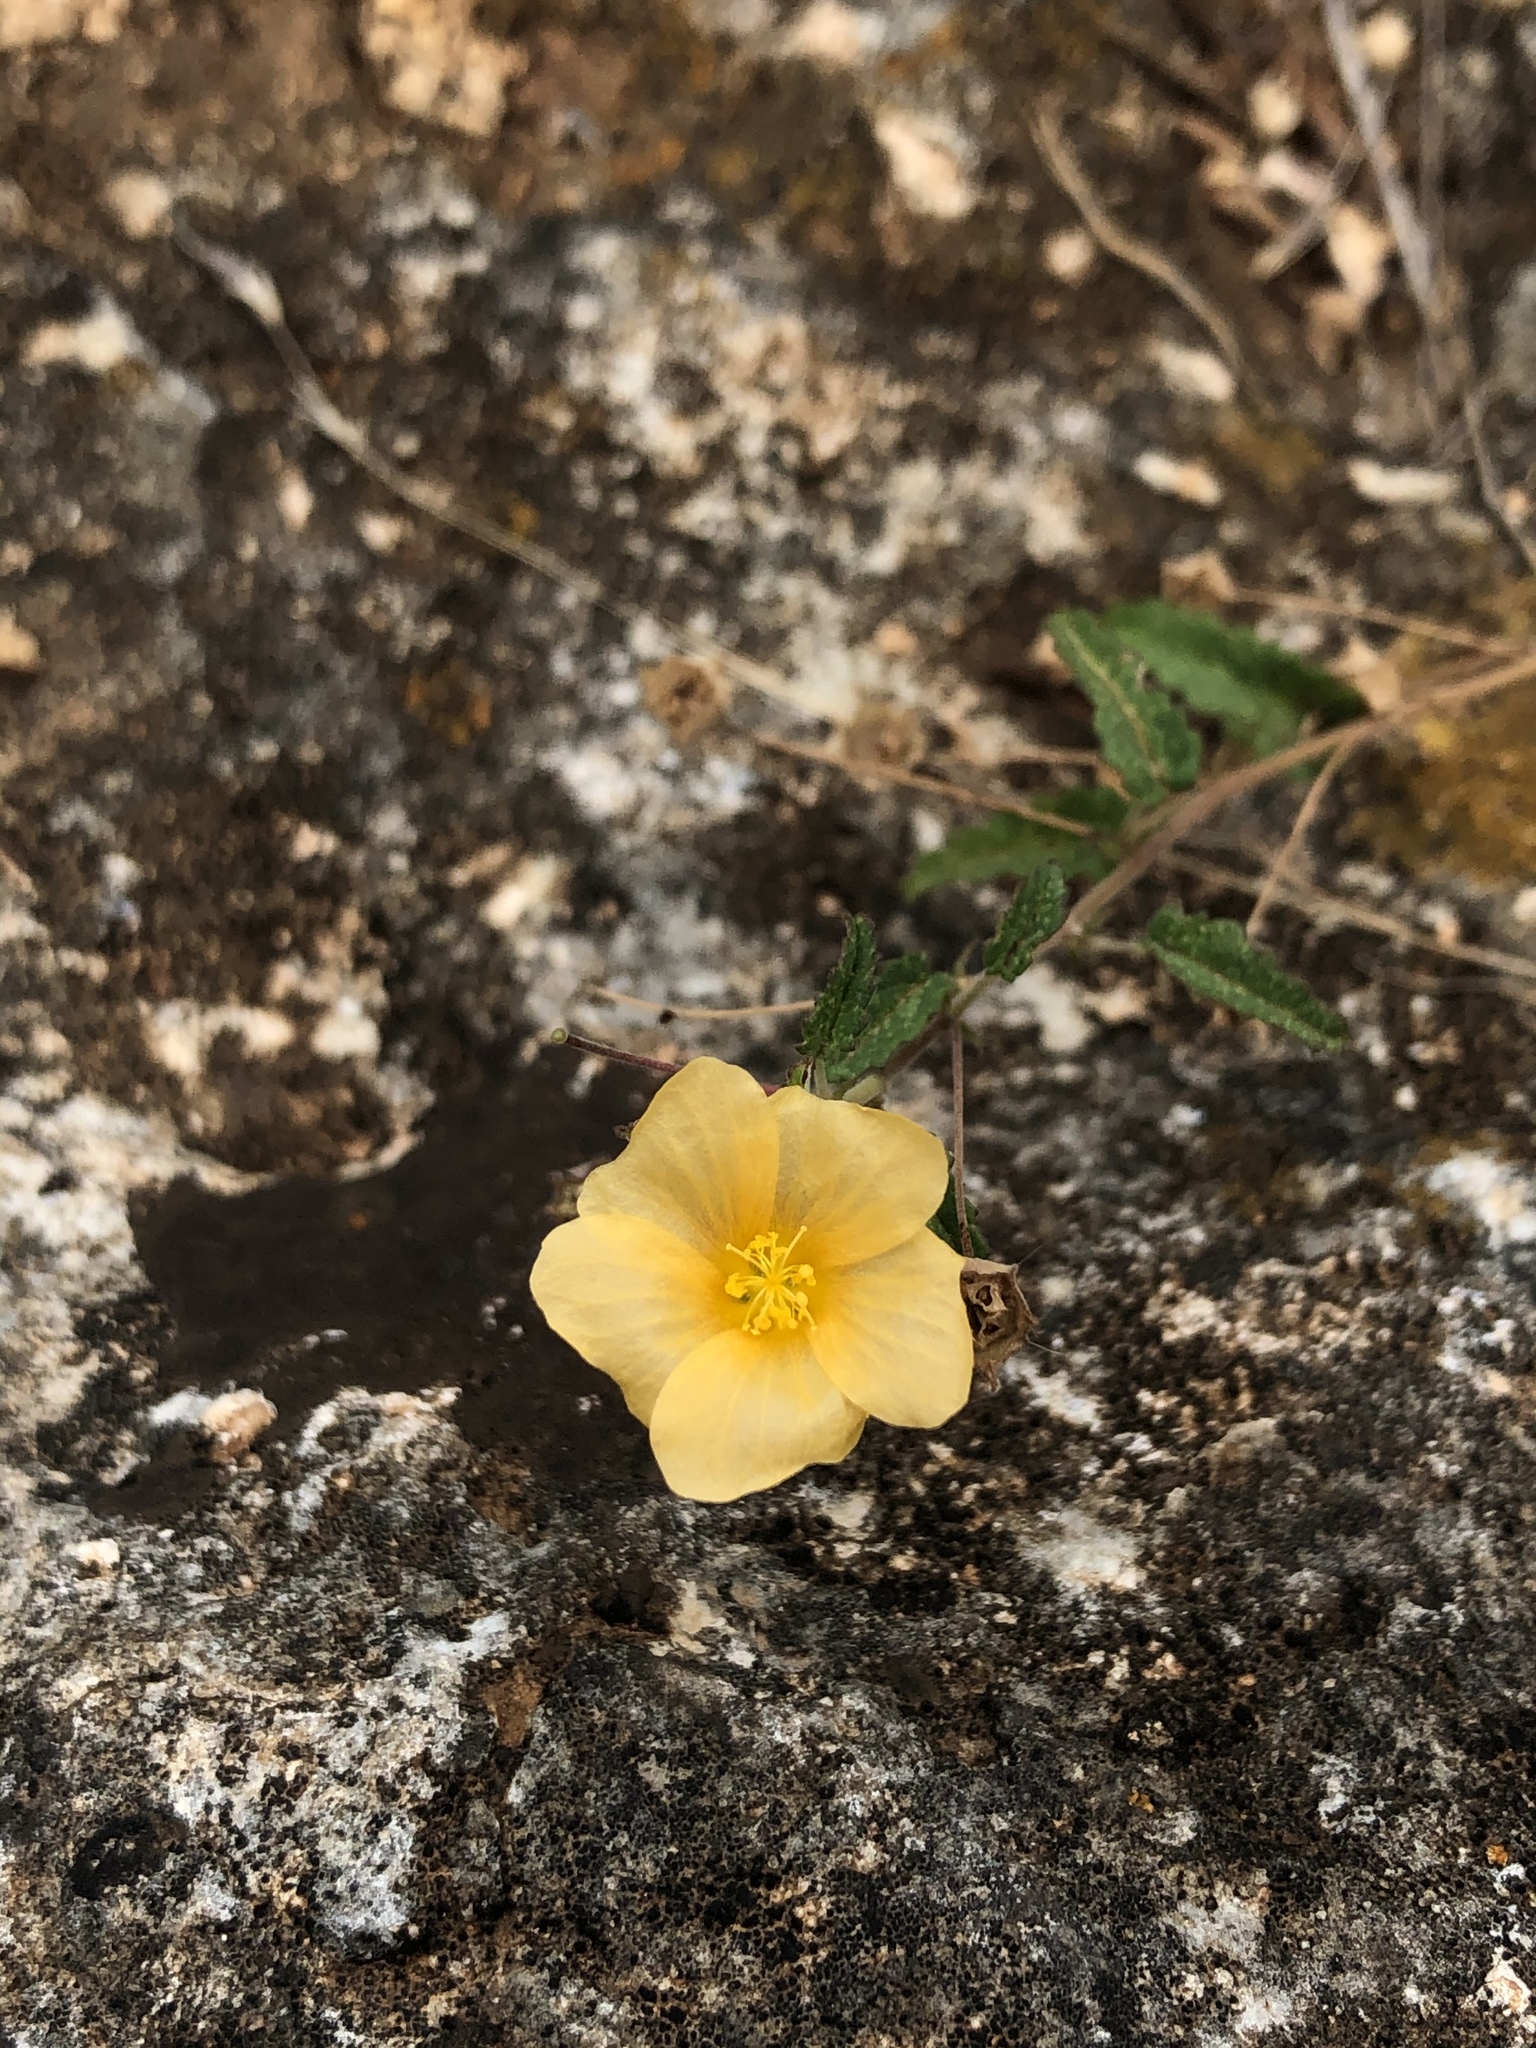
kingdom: Plantae
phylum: Tracheophyta
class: Magnoliopsida
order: Malvales
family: Malvaceae
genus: Sida
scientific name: Sida abutilifolia
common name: Spreading fanpetals
